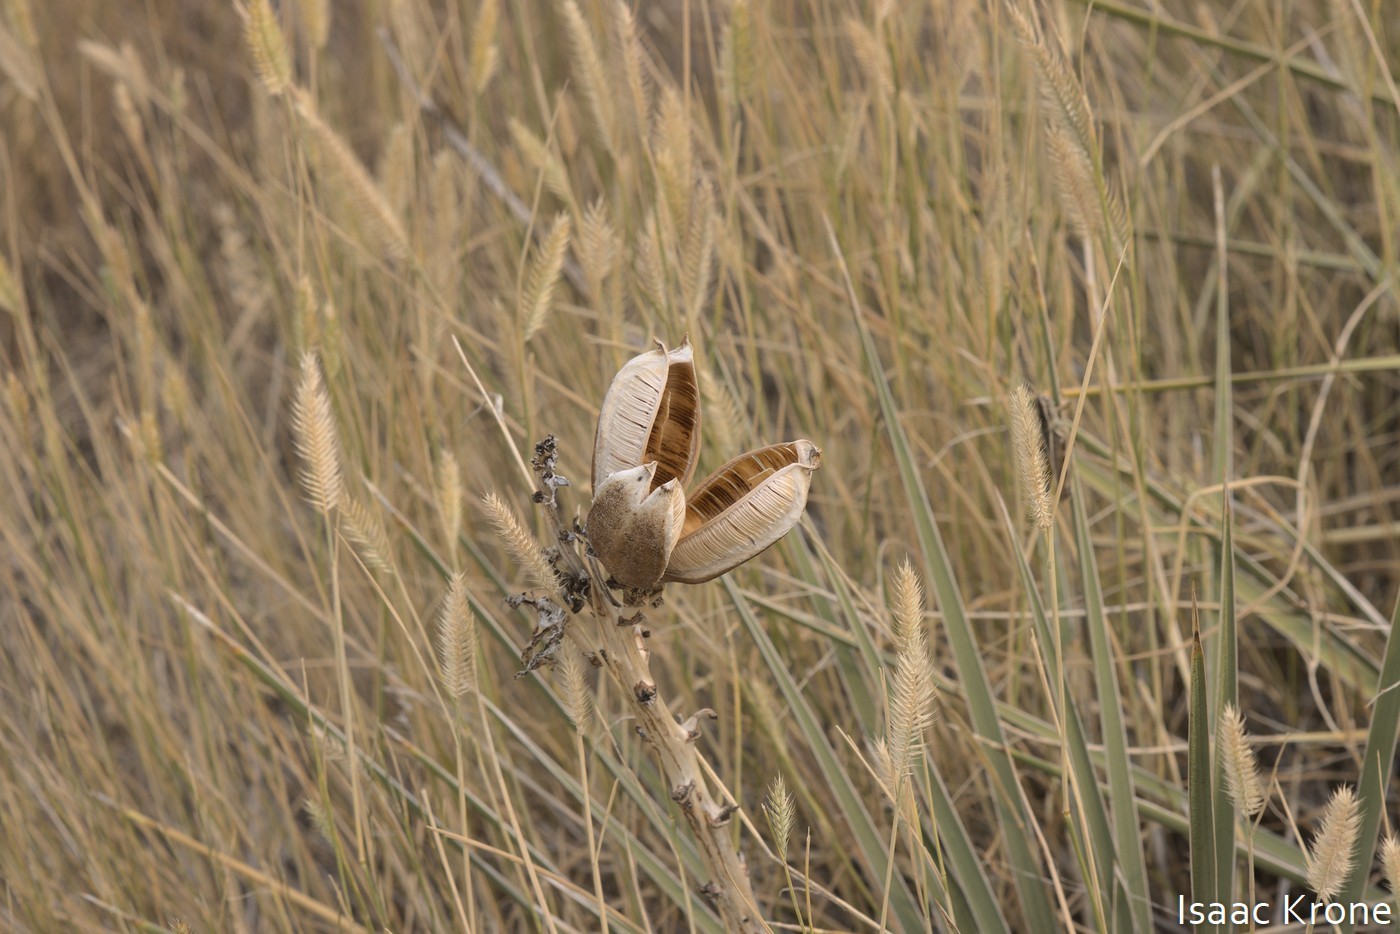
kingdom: Plantae
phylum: Tracheophyta
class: Liliopsida
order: Asparagales
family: Asparagaceae
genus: Yucca
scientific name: Yucca glauca
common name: Great plains yucca
